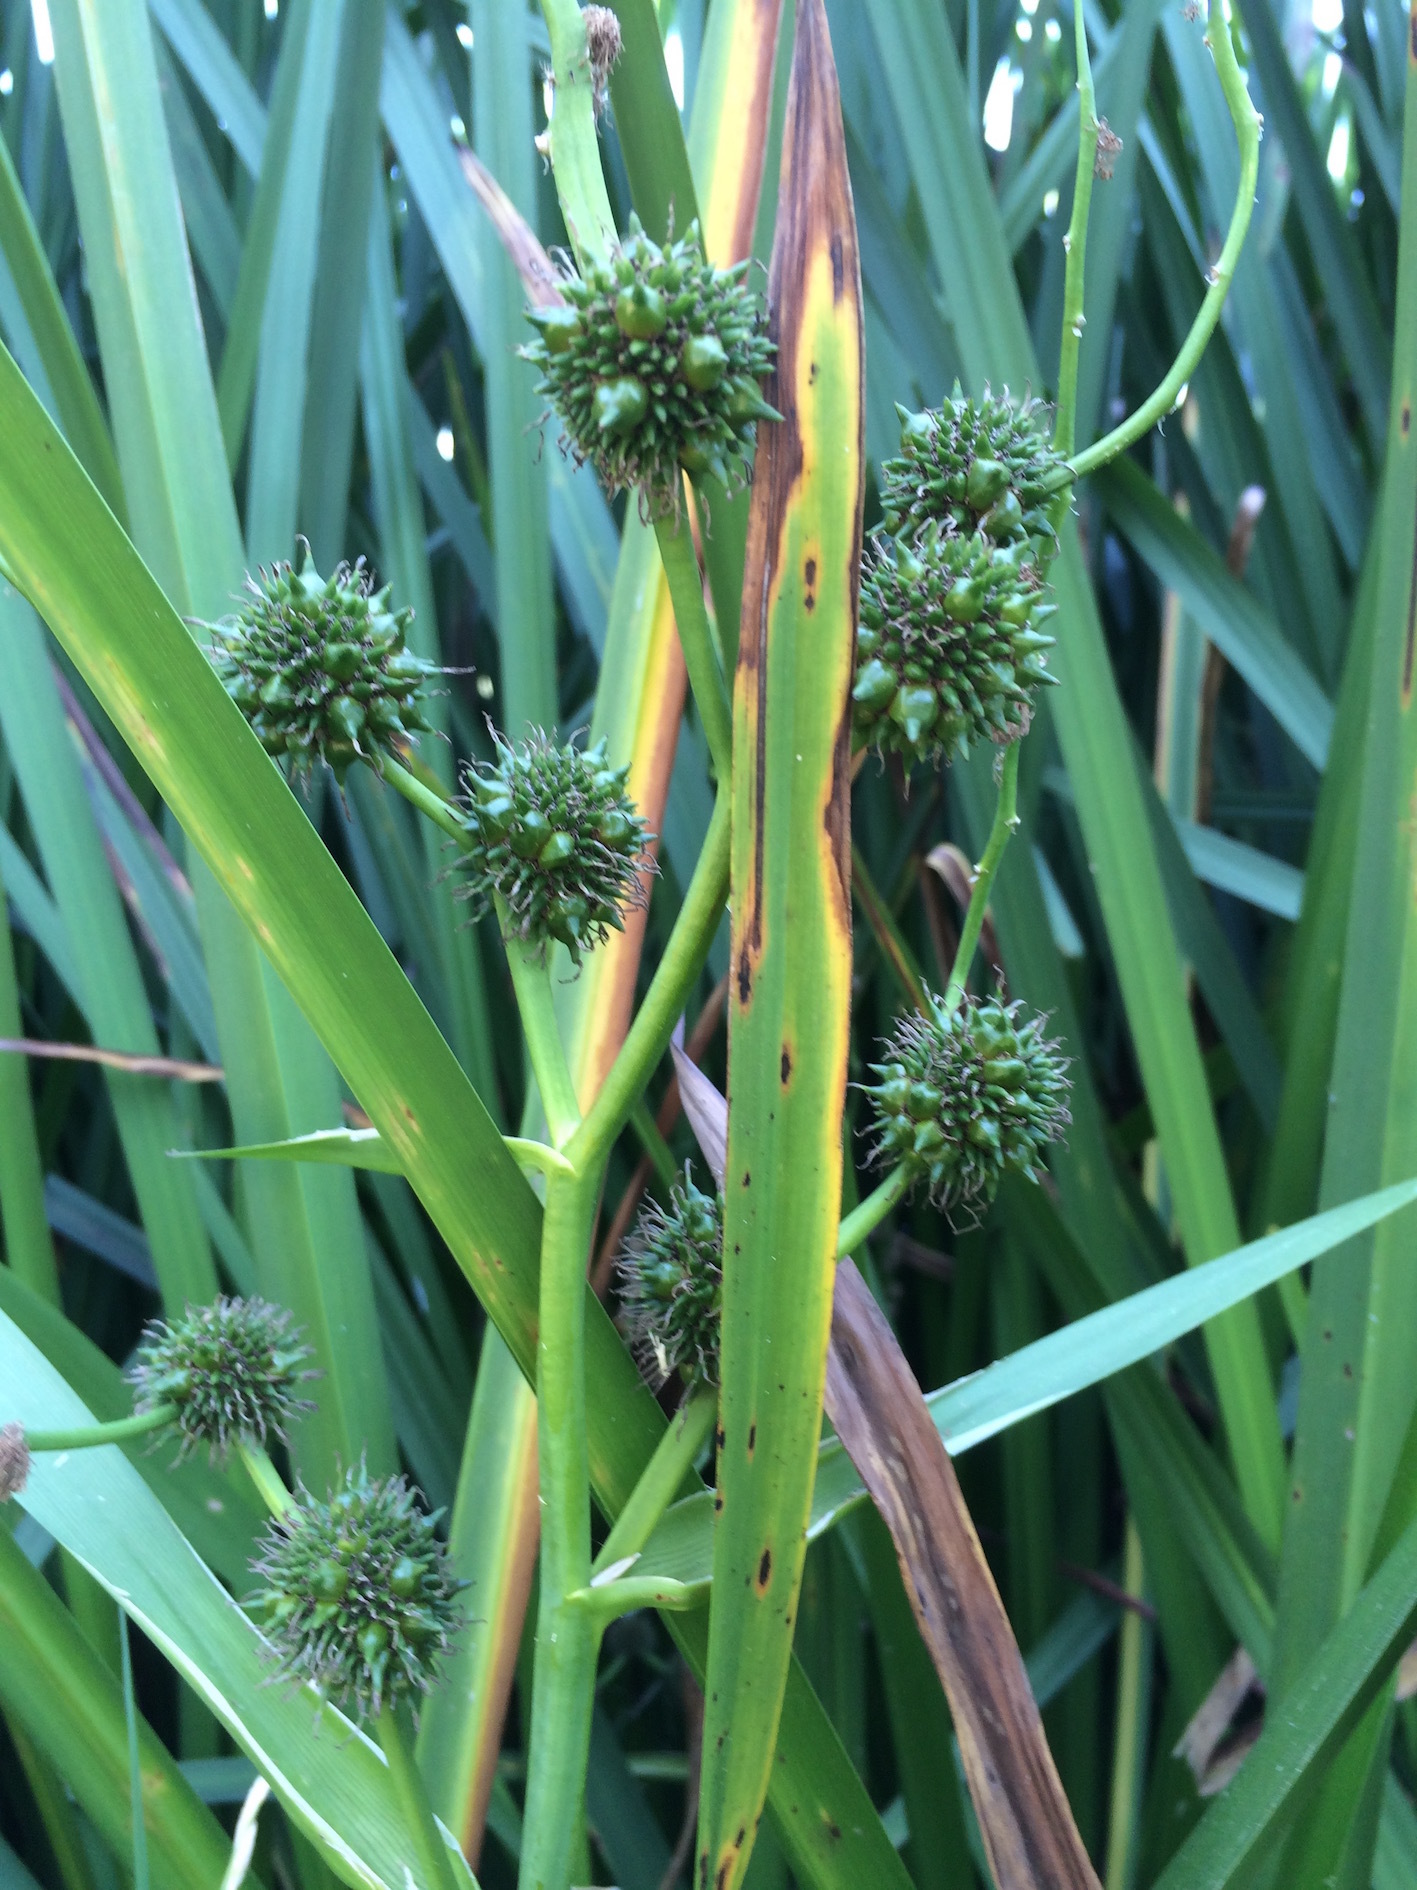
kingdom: Plantae
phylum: Tracheophyta
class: Liliopsida
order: Poales
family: Typhaceae
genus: Sparganium
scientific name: Sparganium erectum
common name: Branched bur-reed
